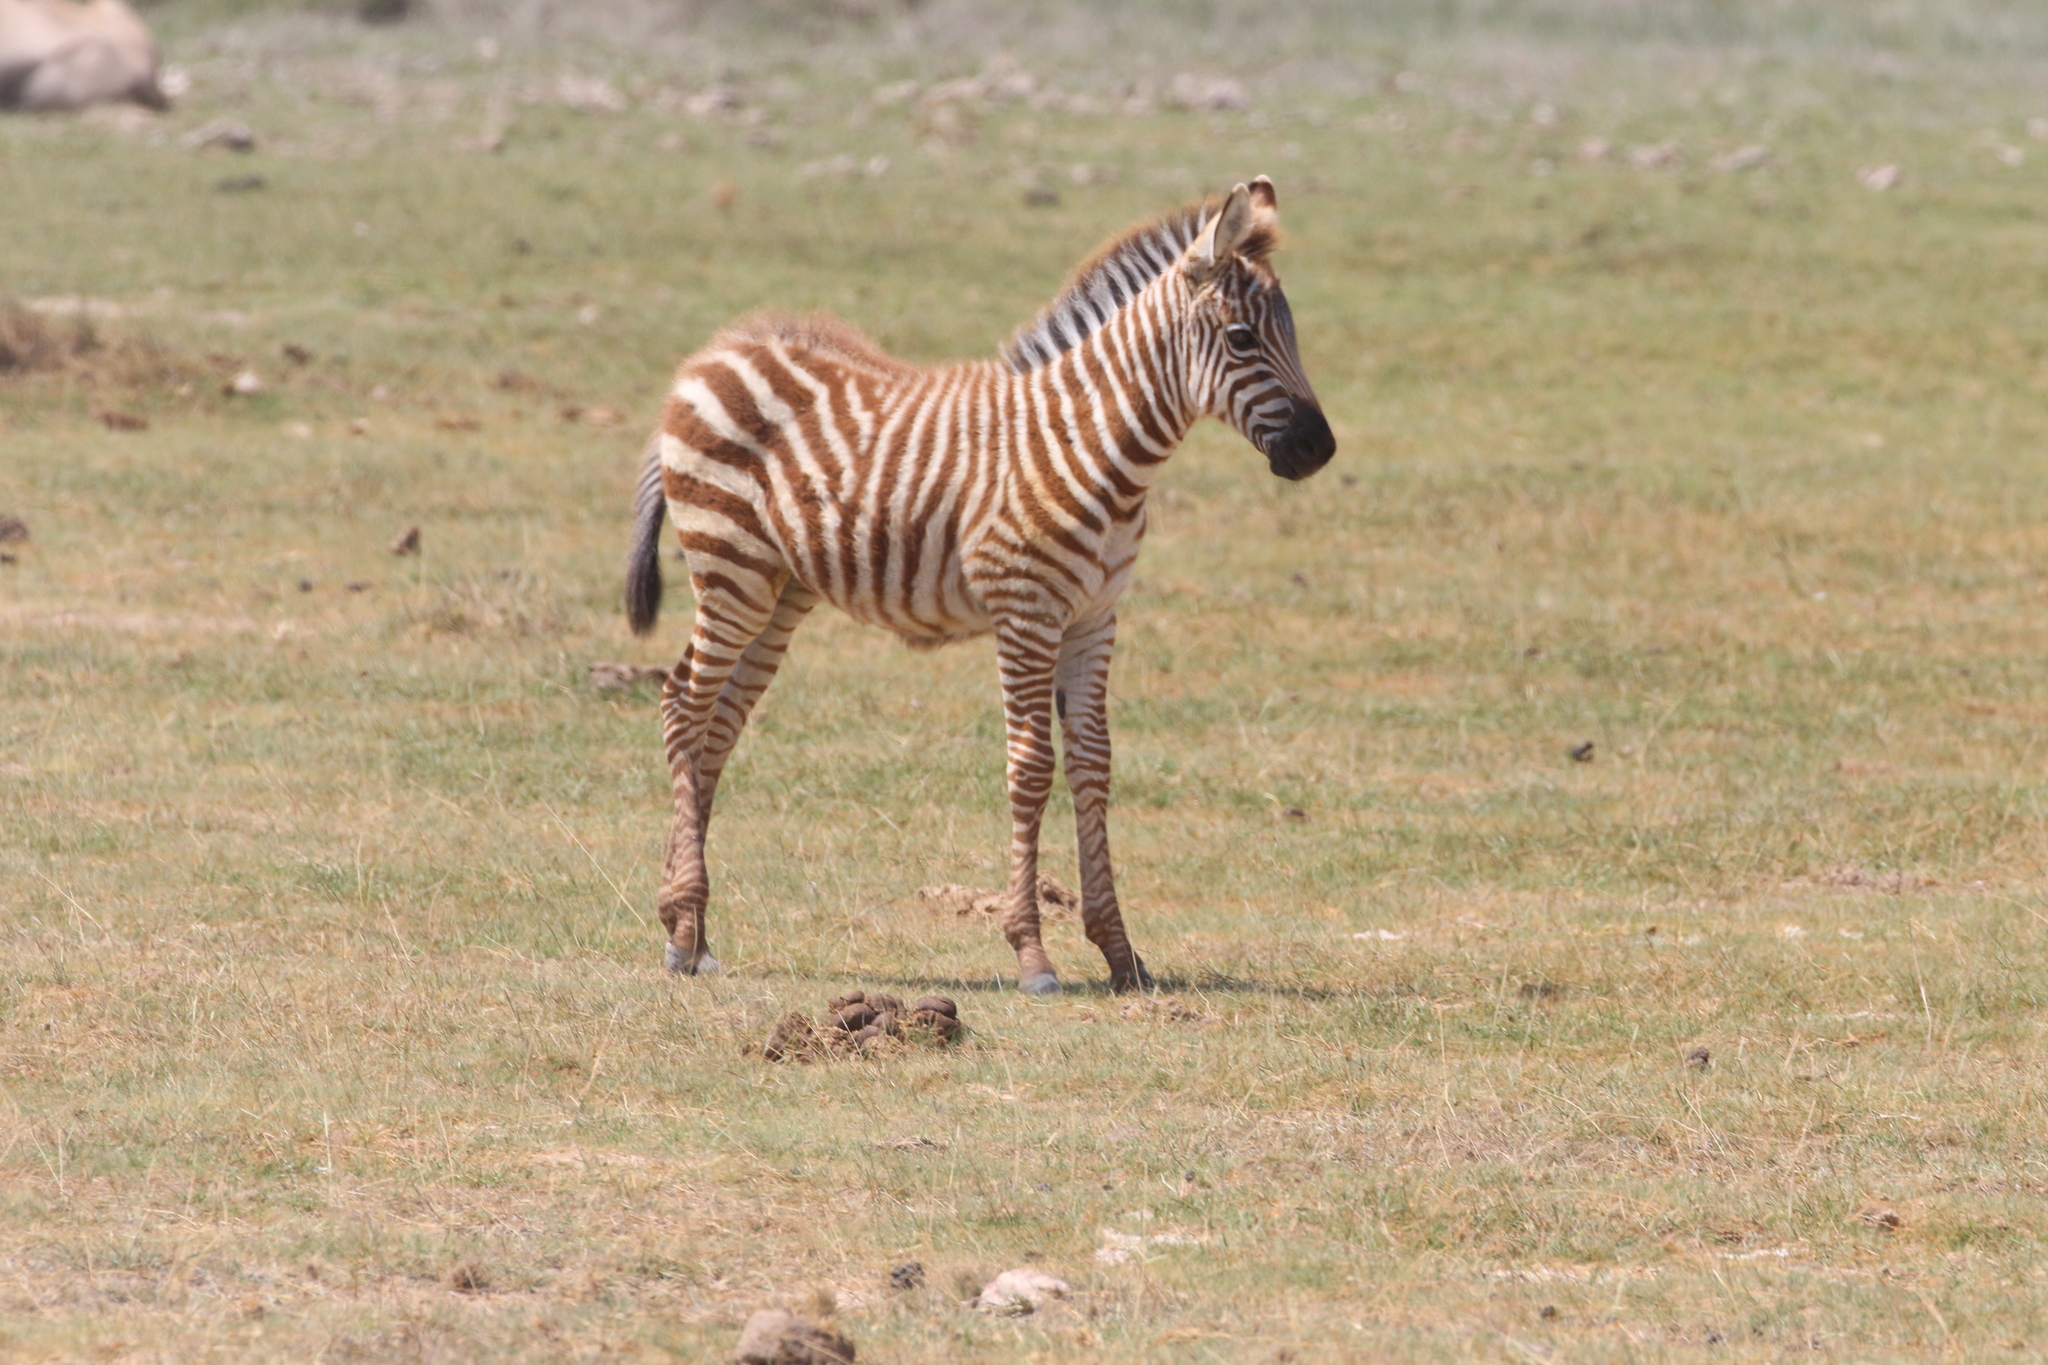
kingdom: Animalia
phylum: Chordata
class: Mammalia
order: Perissodactyla
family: Equidae
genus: Equus
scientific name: Equus quagga
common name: Plains zebra
